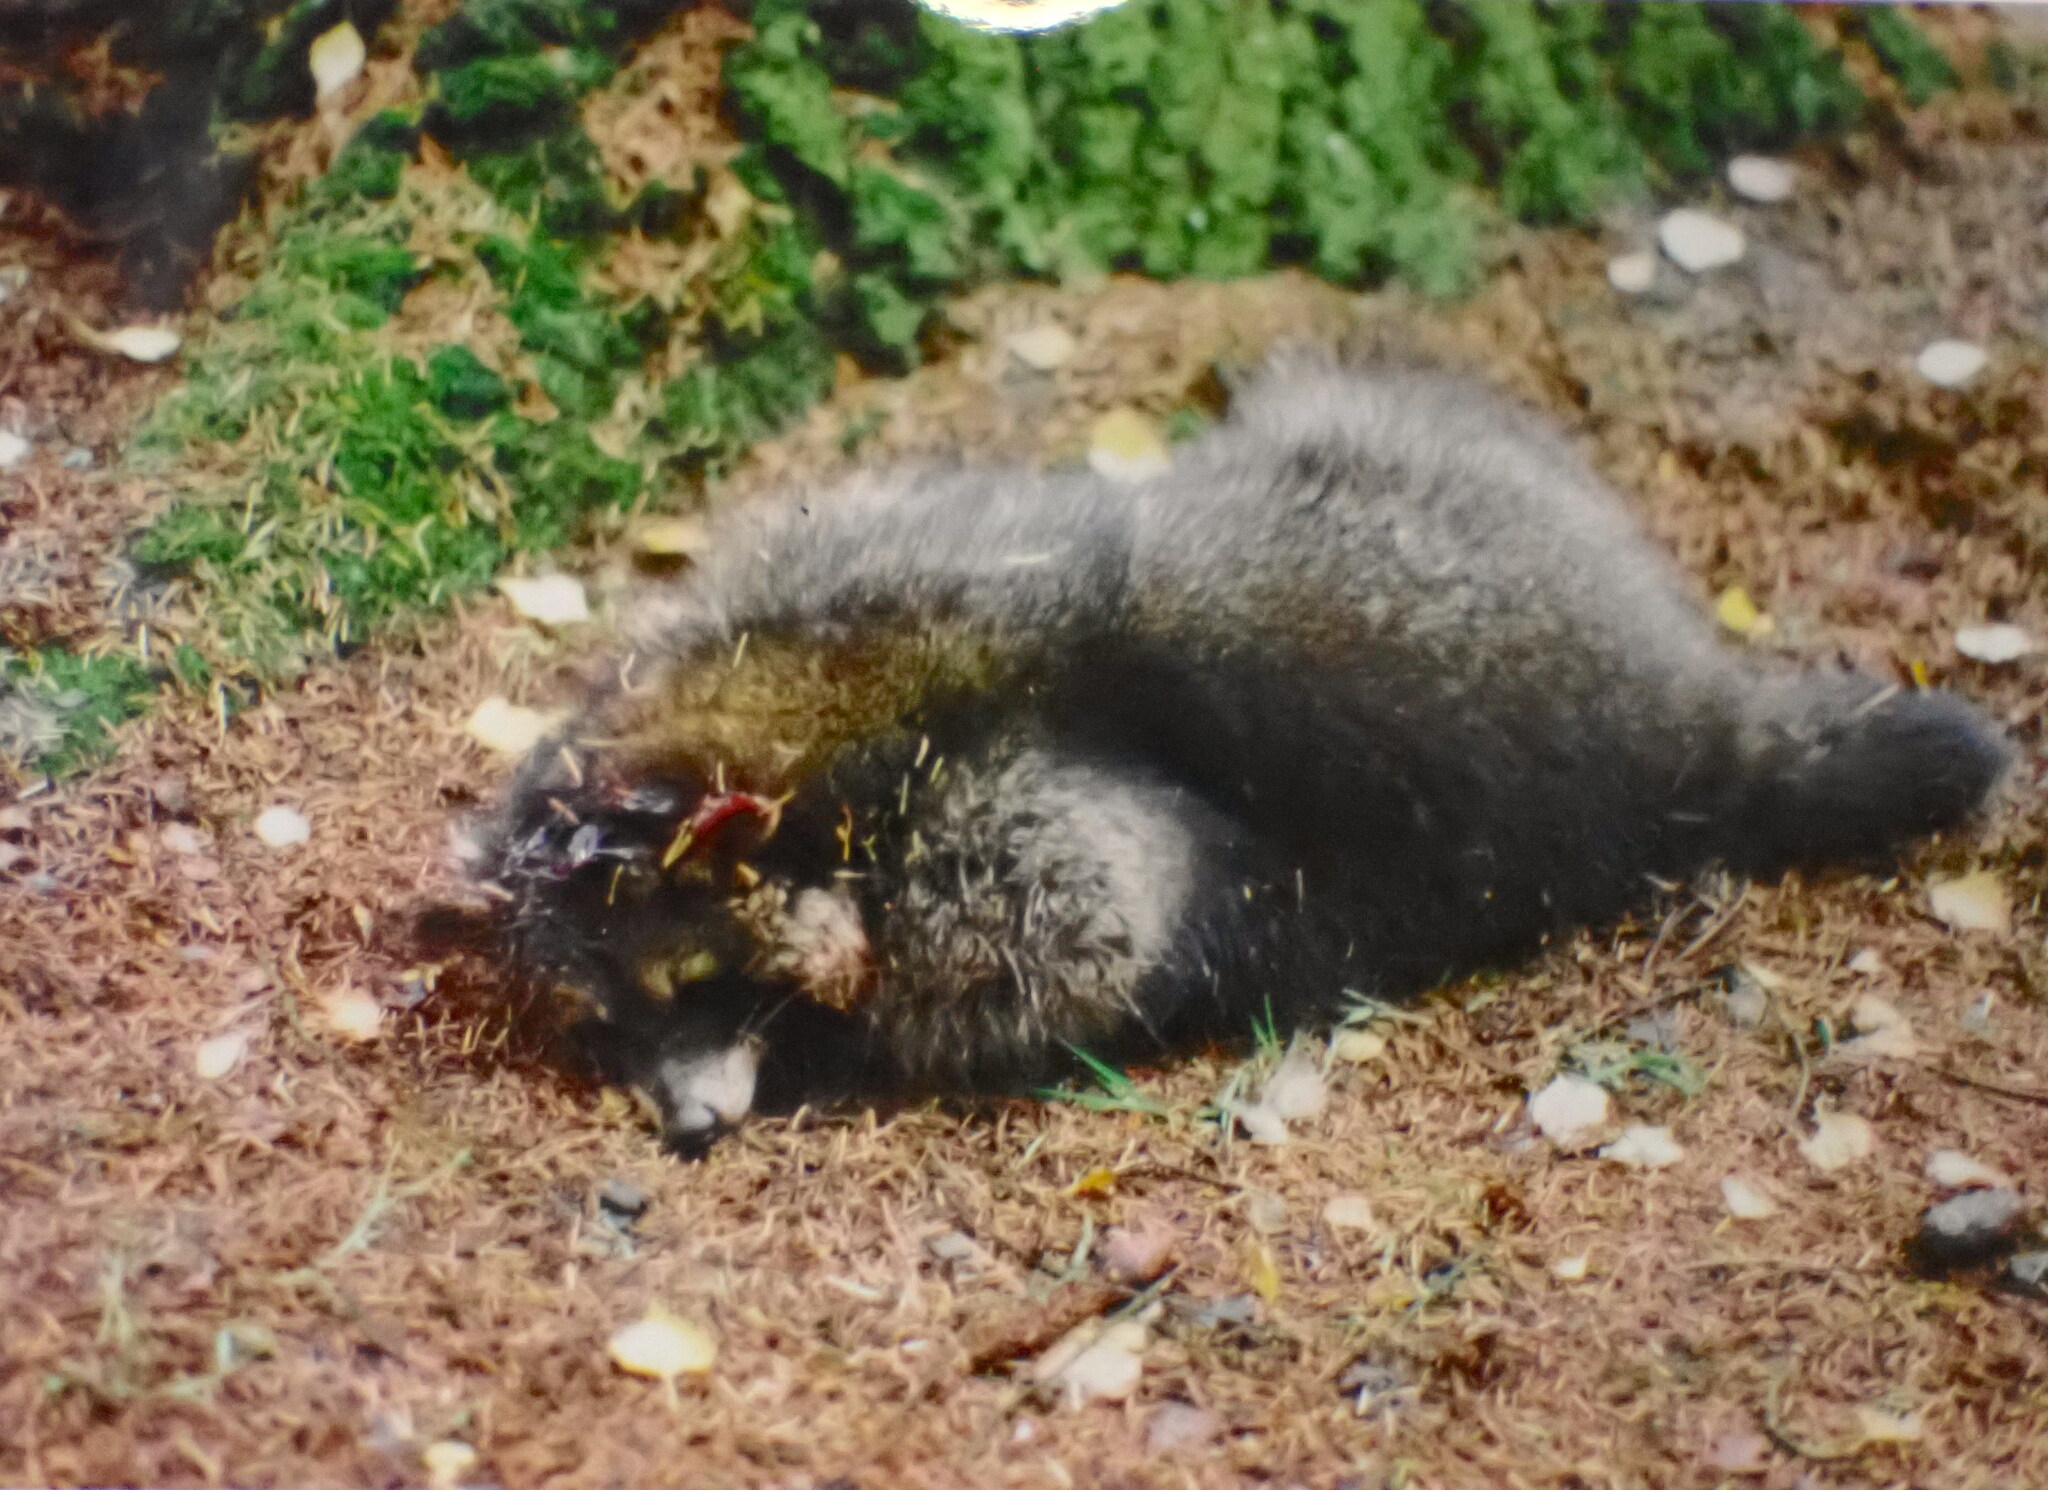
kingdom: Animalia
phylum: Chordata
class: Mammalia
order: Carnivora
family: Procyonidae
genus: Procyon
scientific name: Procyon lotor
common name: Raccoon
